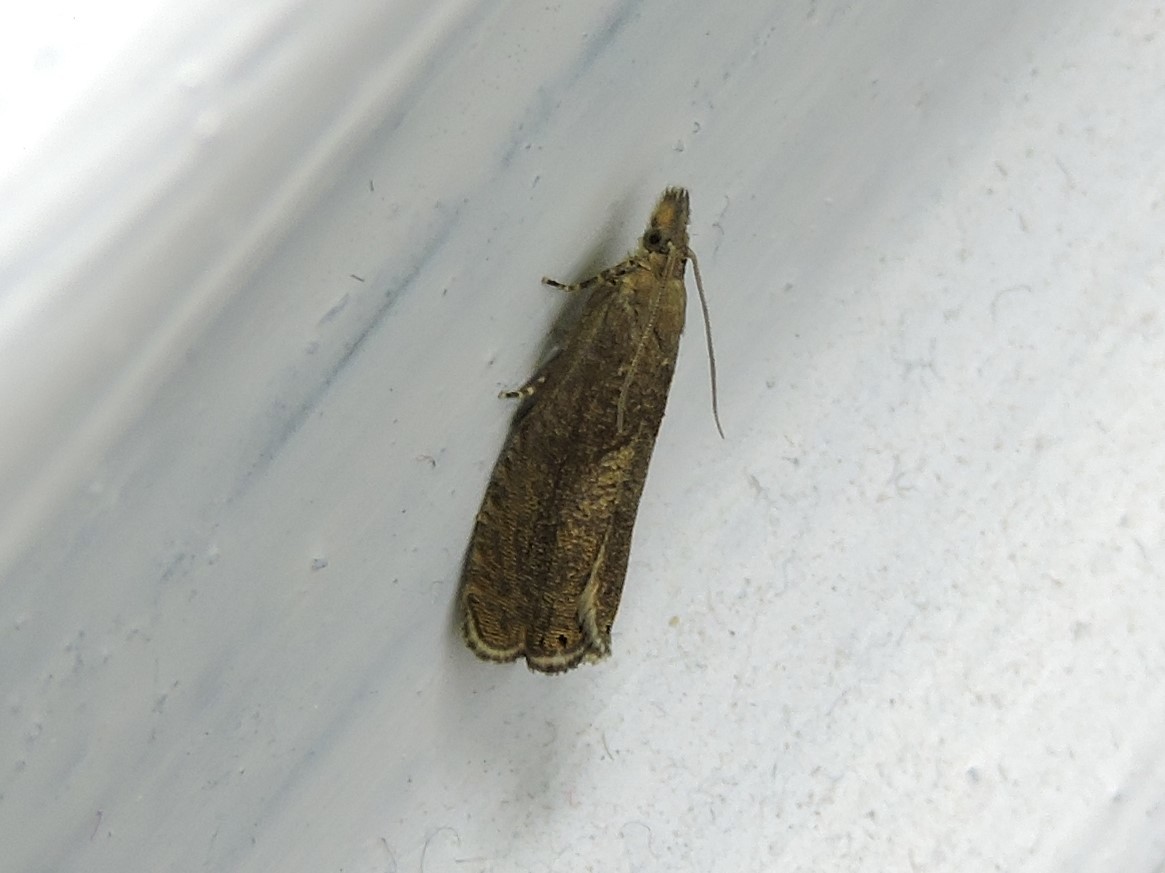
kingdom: Animalia
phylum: Arthropoda
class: Insecta
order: Lepidoptera
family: Tortricidae
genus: Dichrorampha
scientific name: Dichrorampha simpliciana
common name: Round-winged drill
